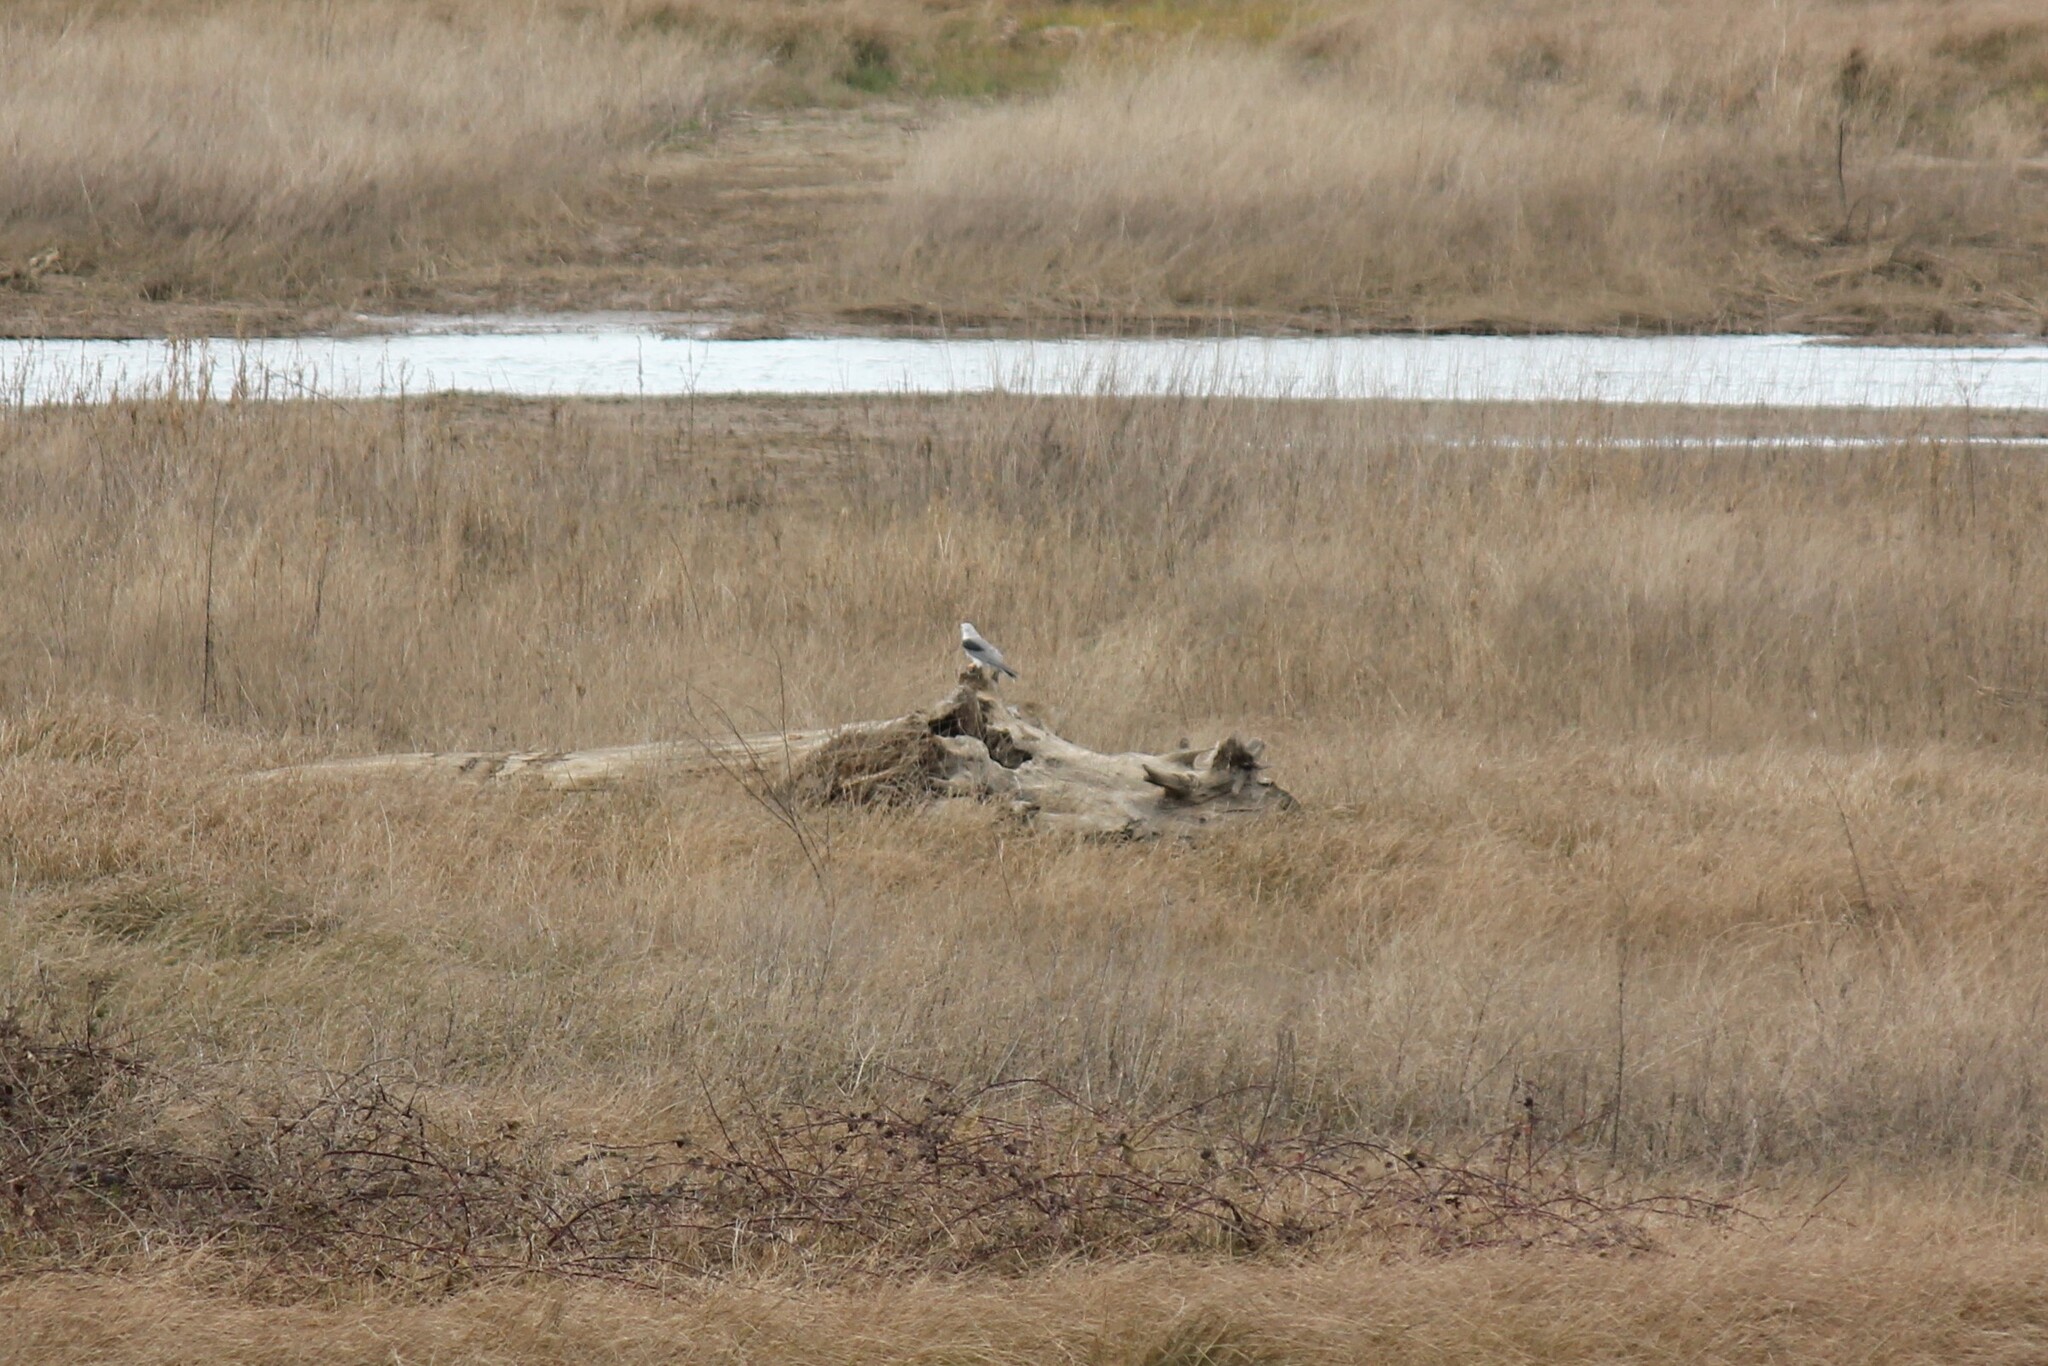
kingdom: Animalia
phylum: Chordata
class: Aves
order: Accipitriformes
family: Accipitridae
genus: Elanus
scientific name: Elanus leucurus
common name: White-tailed kite
